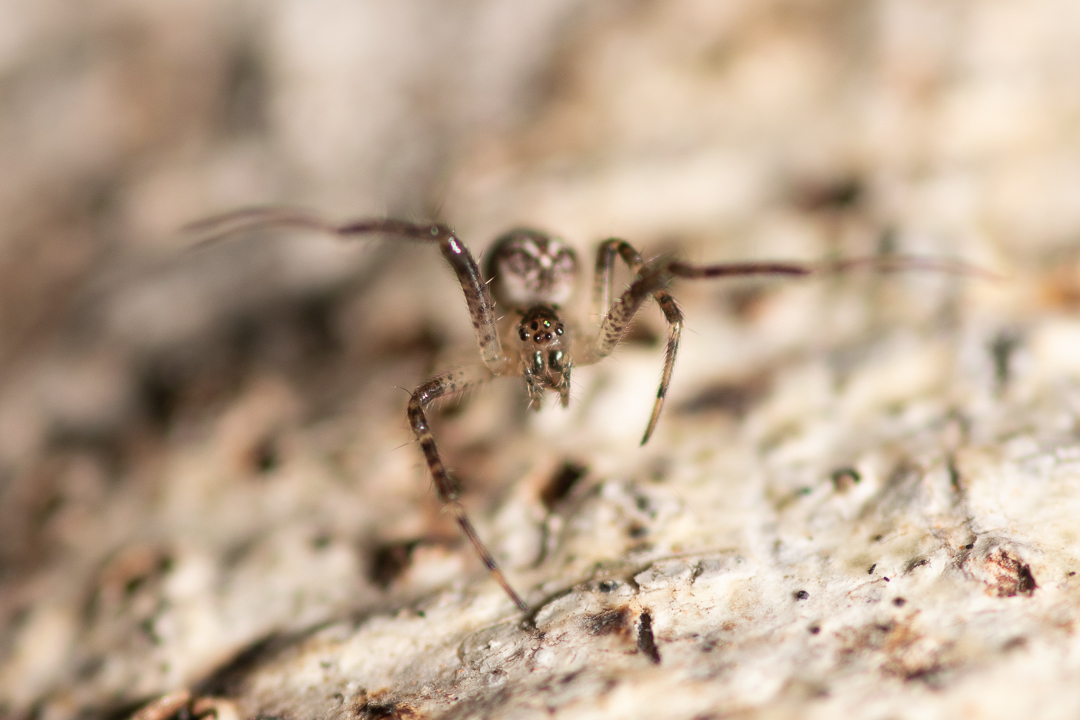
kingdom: Animalia
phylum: Arthropoda
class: Arachnida
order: Araneae
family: Tetragnathidae
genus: Allende
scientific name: Allende nigrohumeralis
